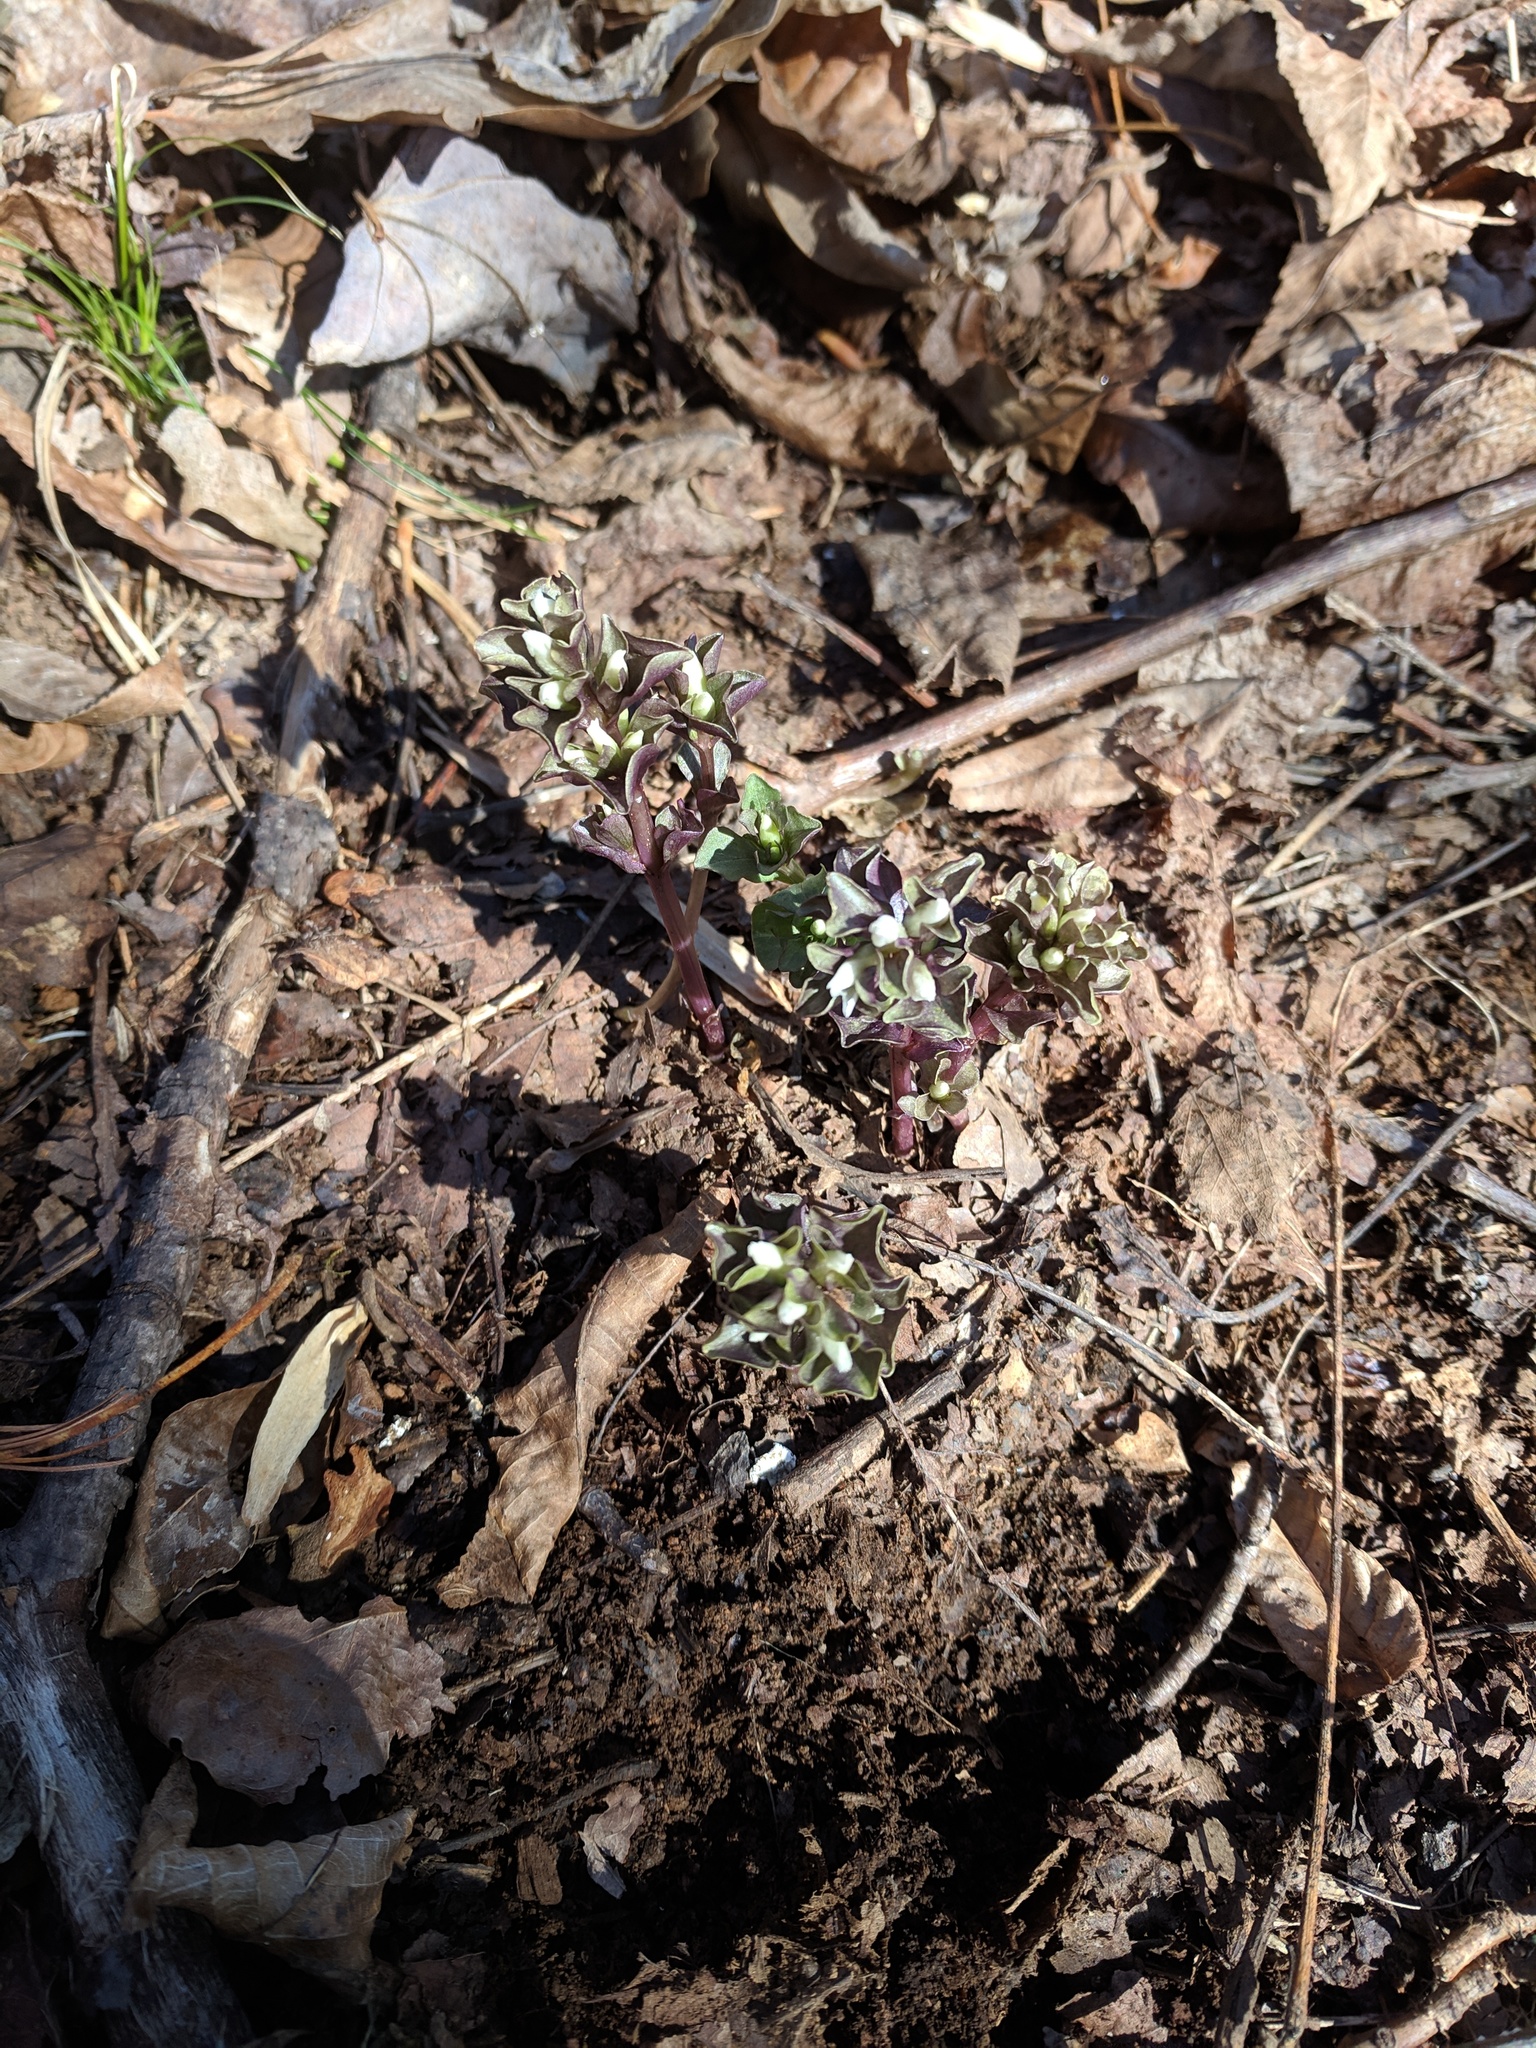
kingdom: Plantae
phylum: Tracheophyta
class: Magnoliopsida
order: Gentianales
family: Gentianaceae
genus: Obolaria
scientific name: Obolaria virginica
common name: Pennywort
